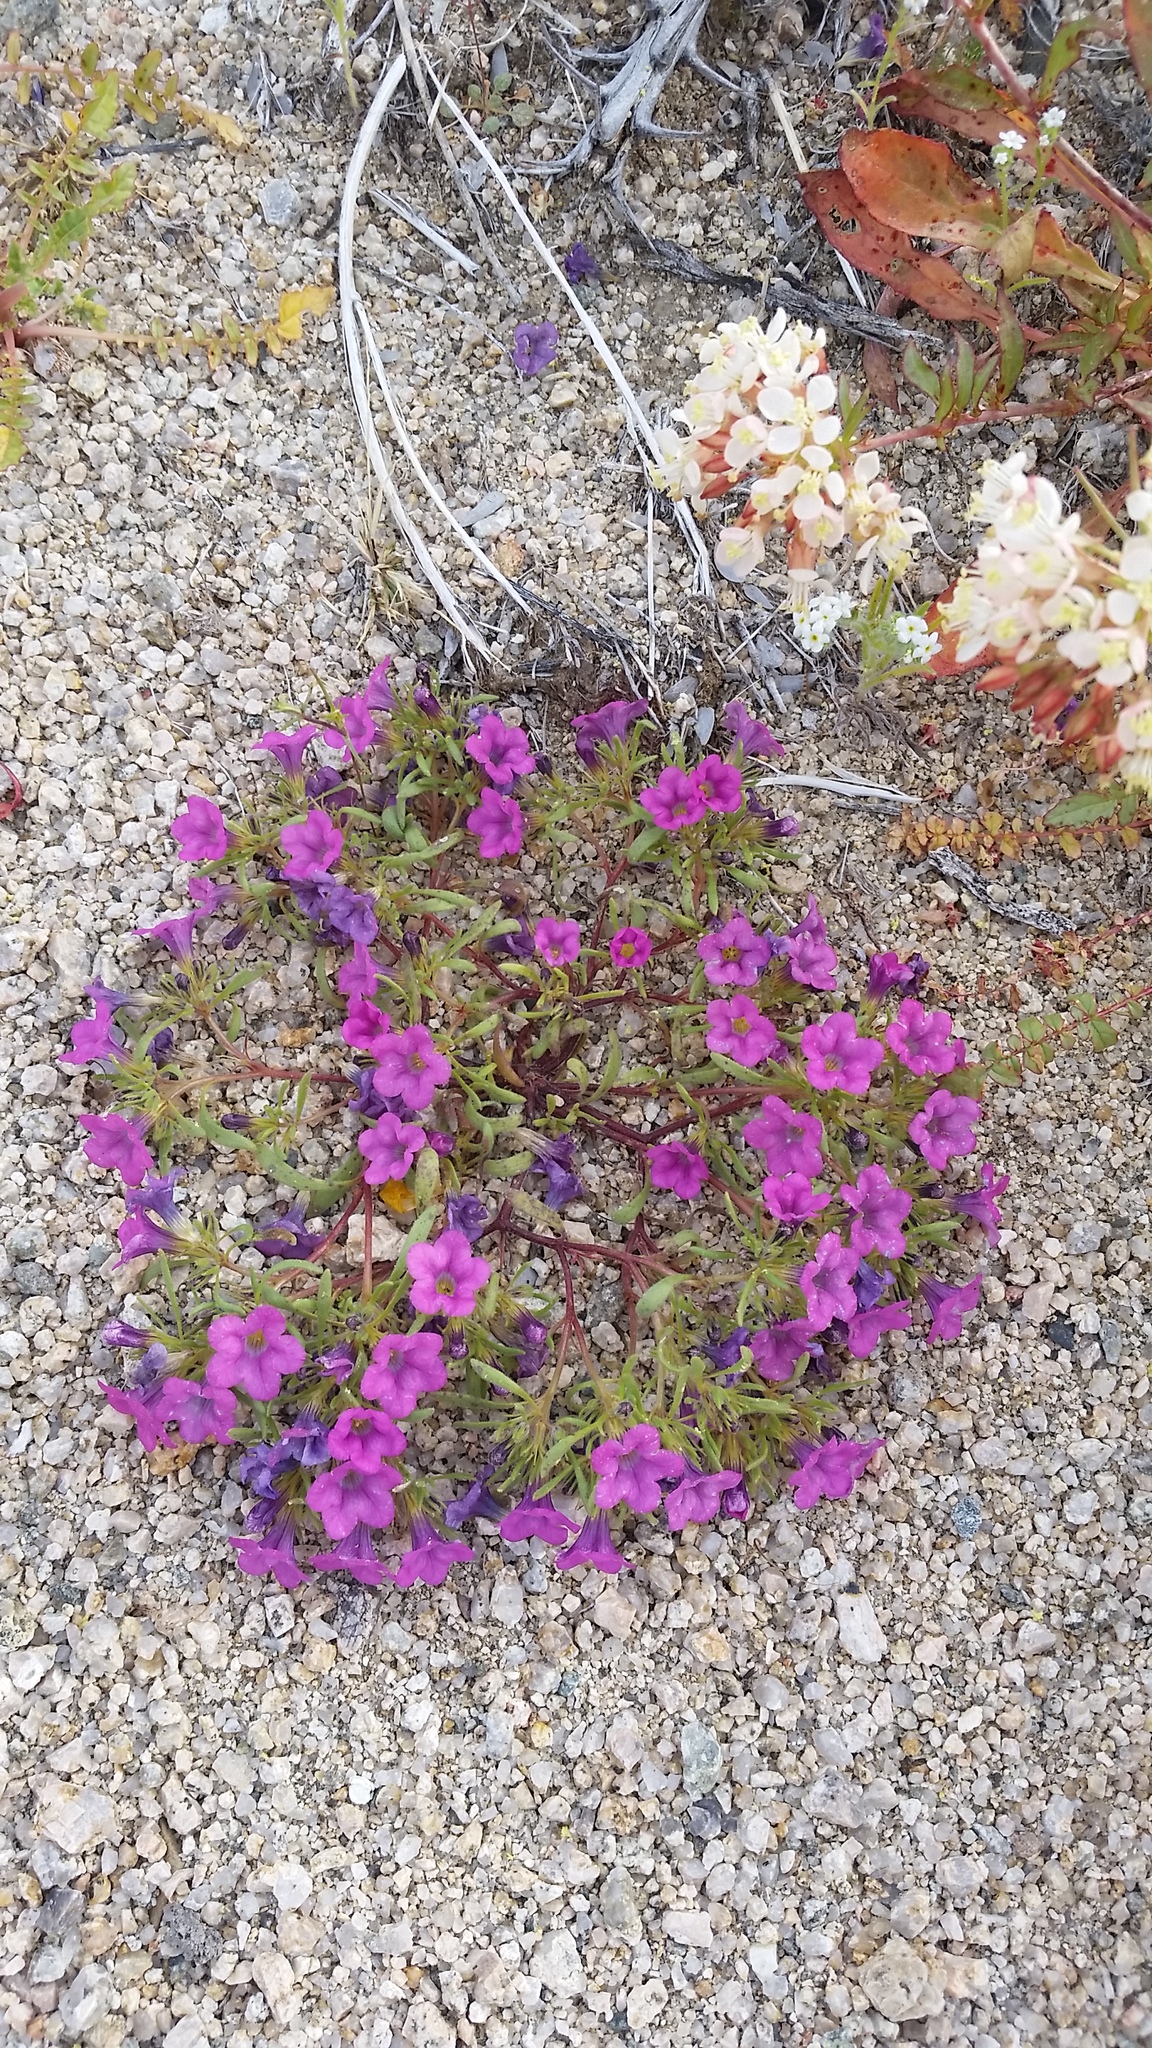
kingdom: Plantae
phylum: Tracheophyta
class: Magnoliopsida
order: Boraginales
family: Namaceae
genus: Nama
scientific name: Nama demissa
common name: Leafy nama
